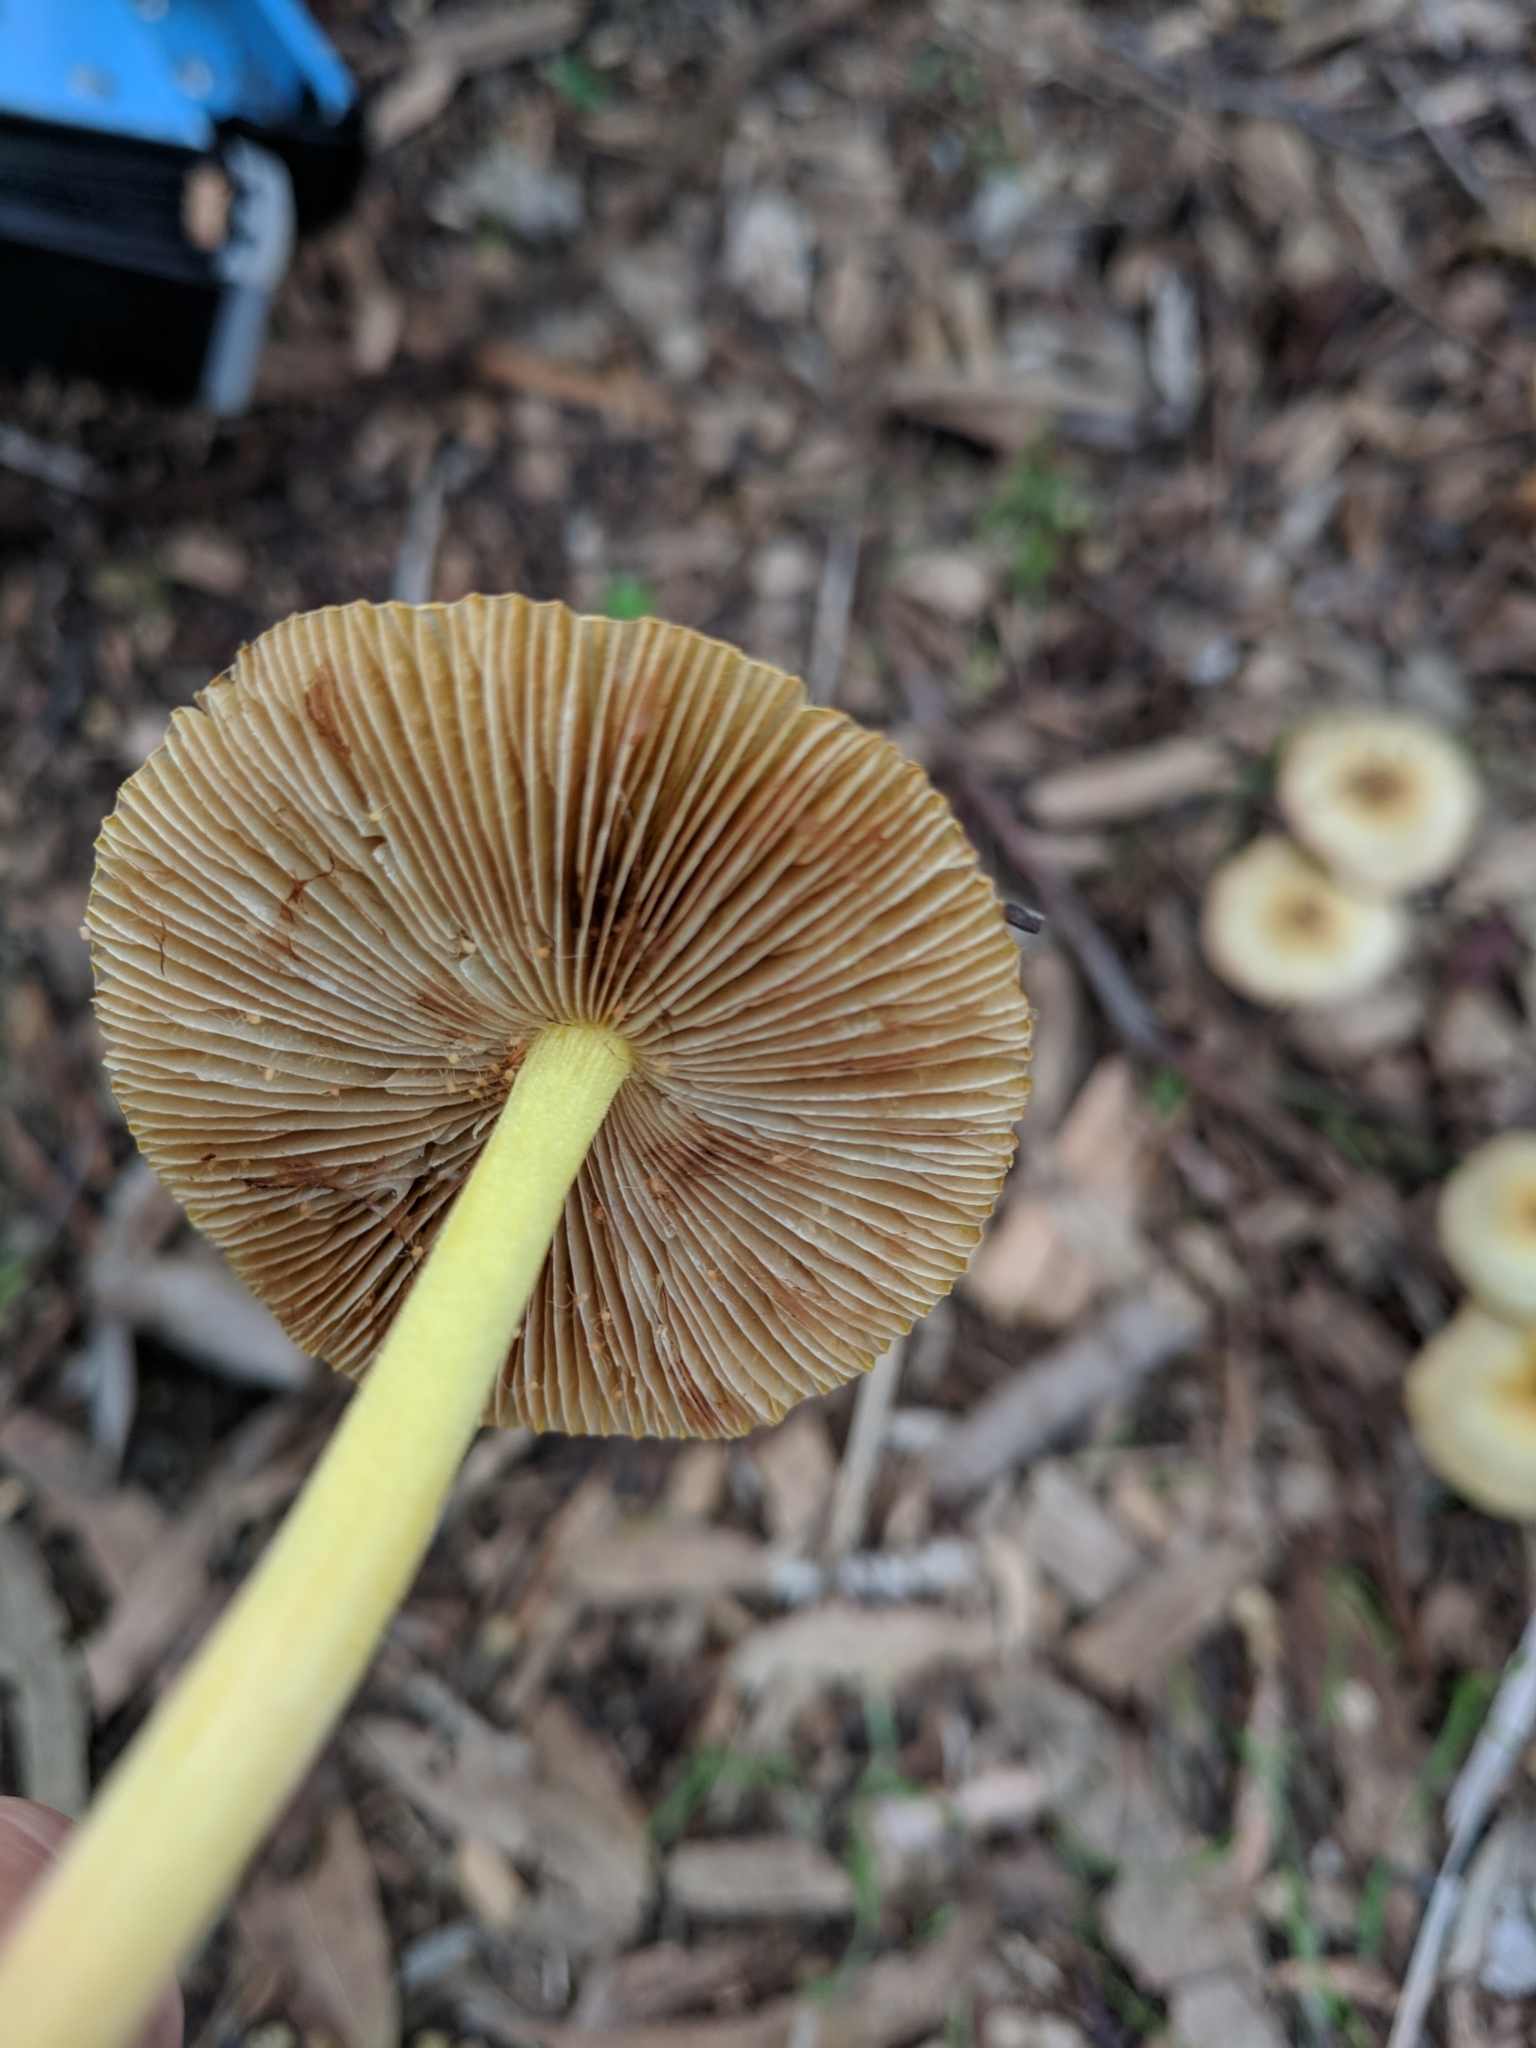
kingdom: Fungi
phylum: Basidiomycota
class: Agaricomycetes
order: Agaricales
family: Bolbitiaceae
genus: Bolbitius
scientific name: Bolbitius titubans
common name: Yellow fieldcap
